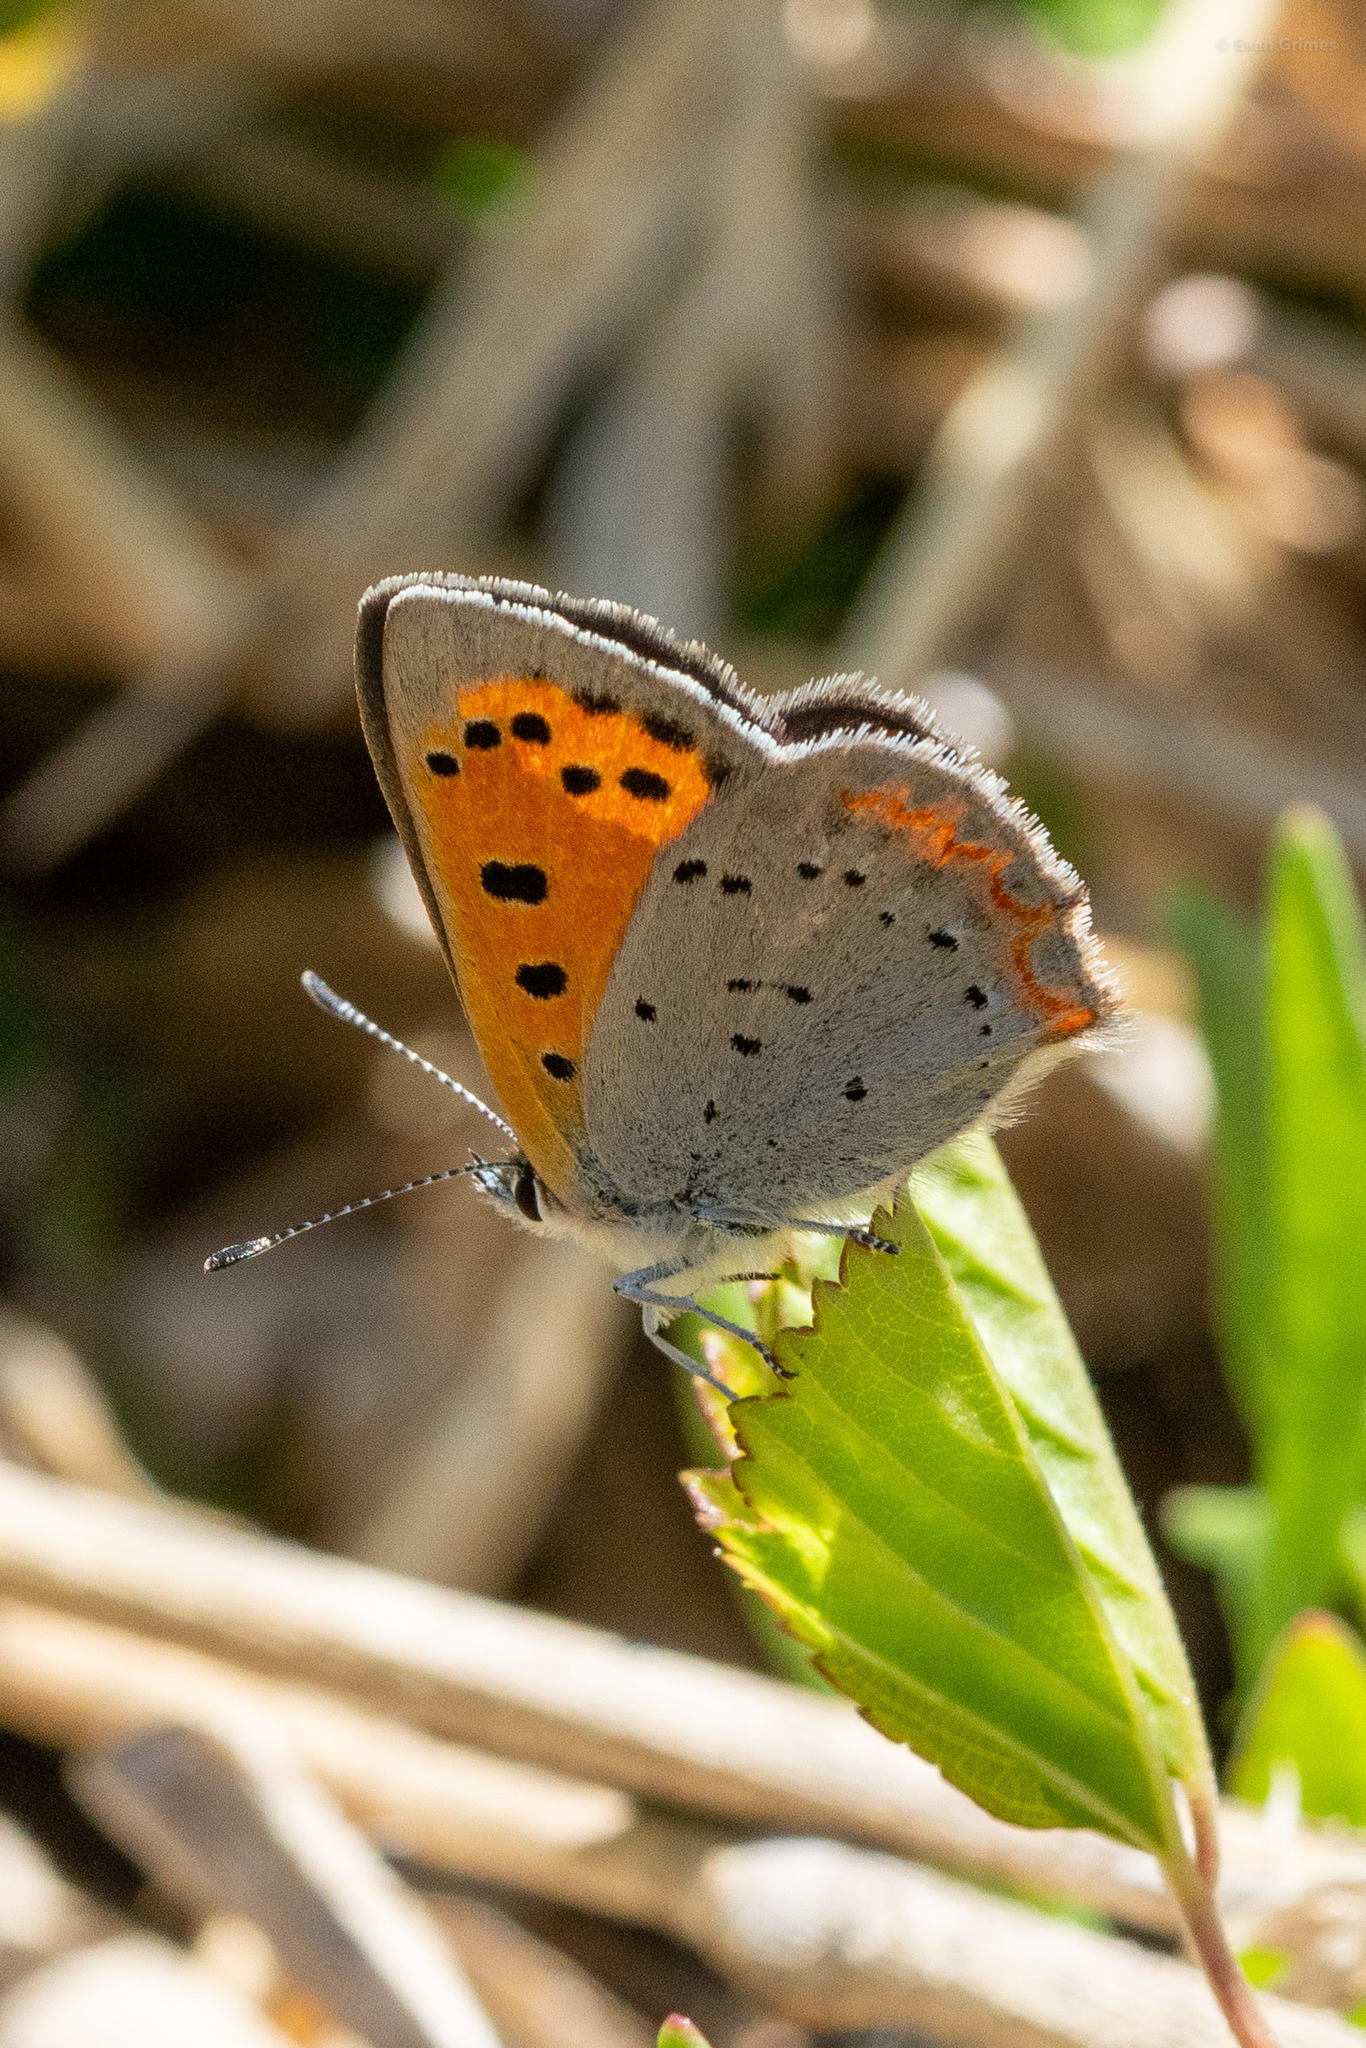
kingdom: Animalia
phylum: Arthropoda
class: Insecta
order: Lepidoptera
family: Lycaenidae
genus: Lycaena
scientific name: Lycaena hypophlaeas
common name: American copper
